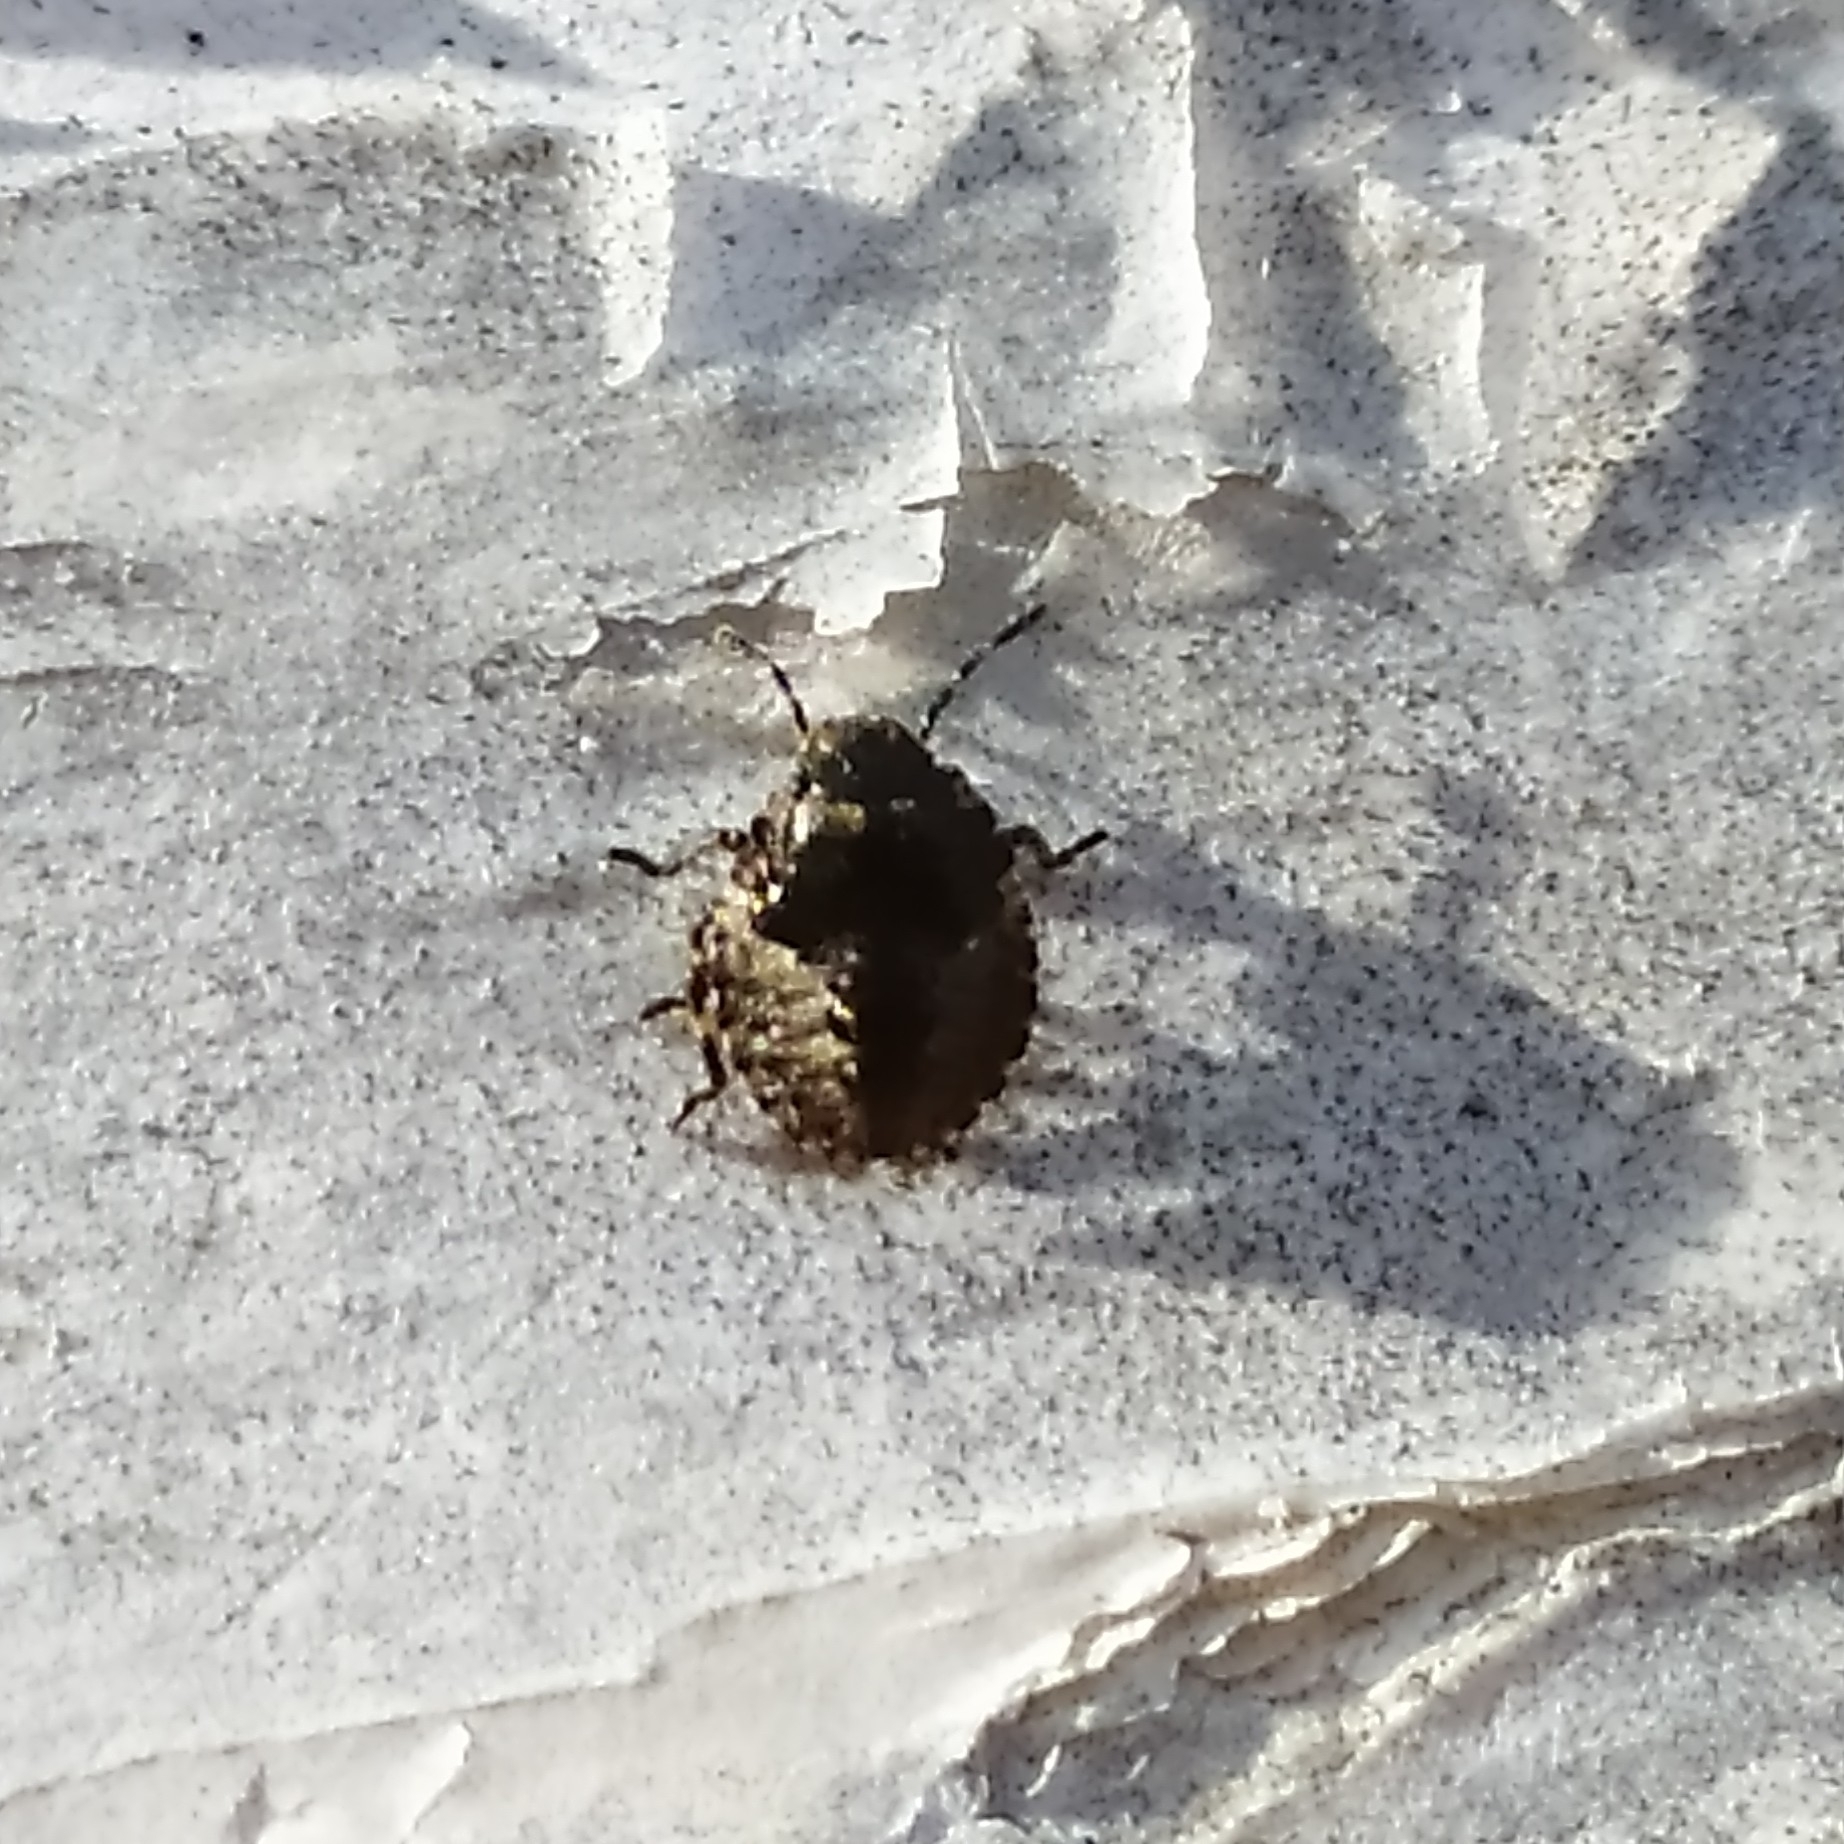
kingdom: Animalia
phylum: Arthropoda
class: Insecta
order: Hemiptera
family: Pentatomidae
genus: Pentatoma
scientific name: Pentatoma rufipes
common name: Forest bug
